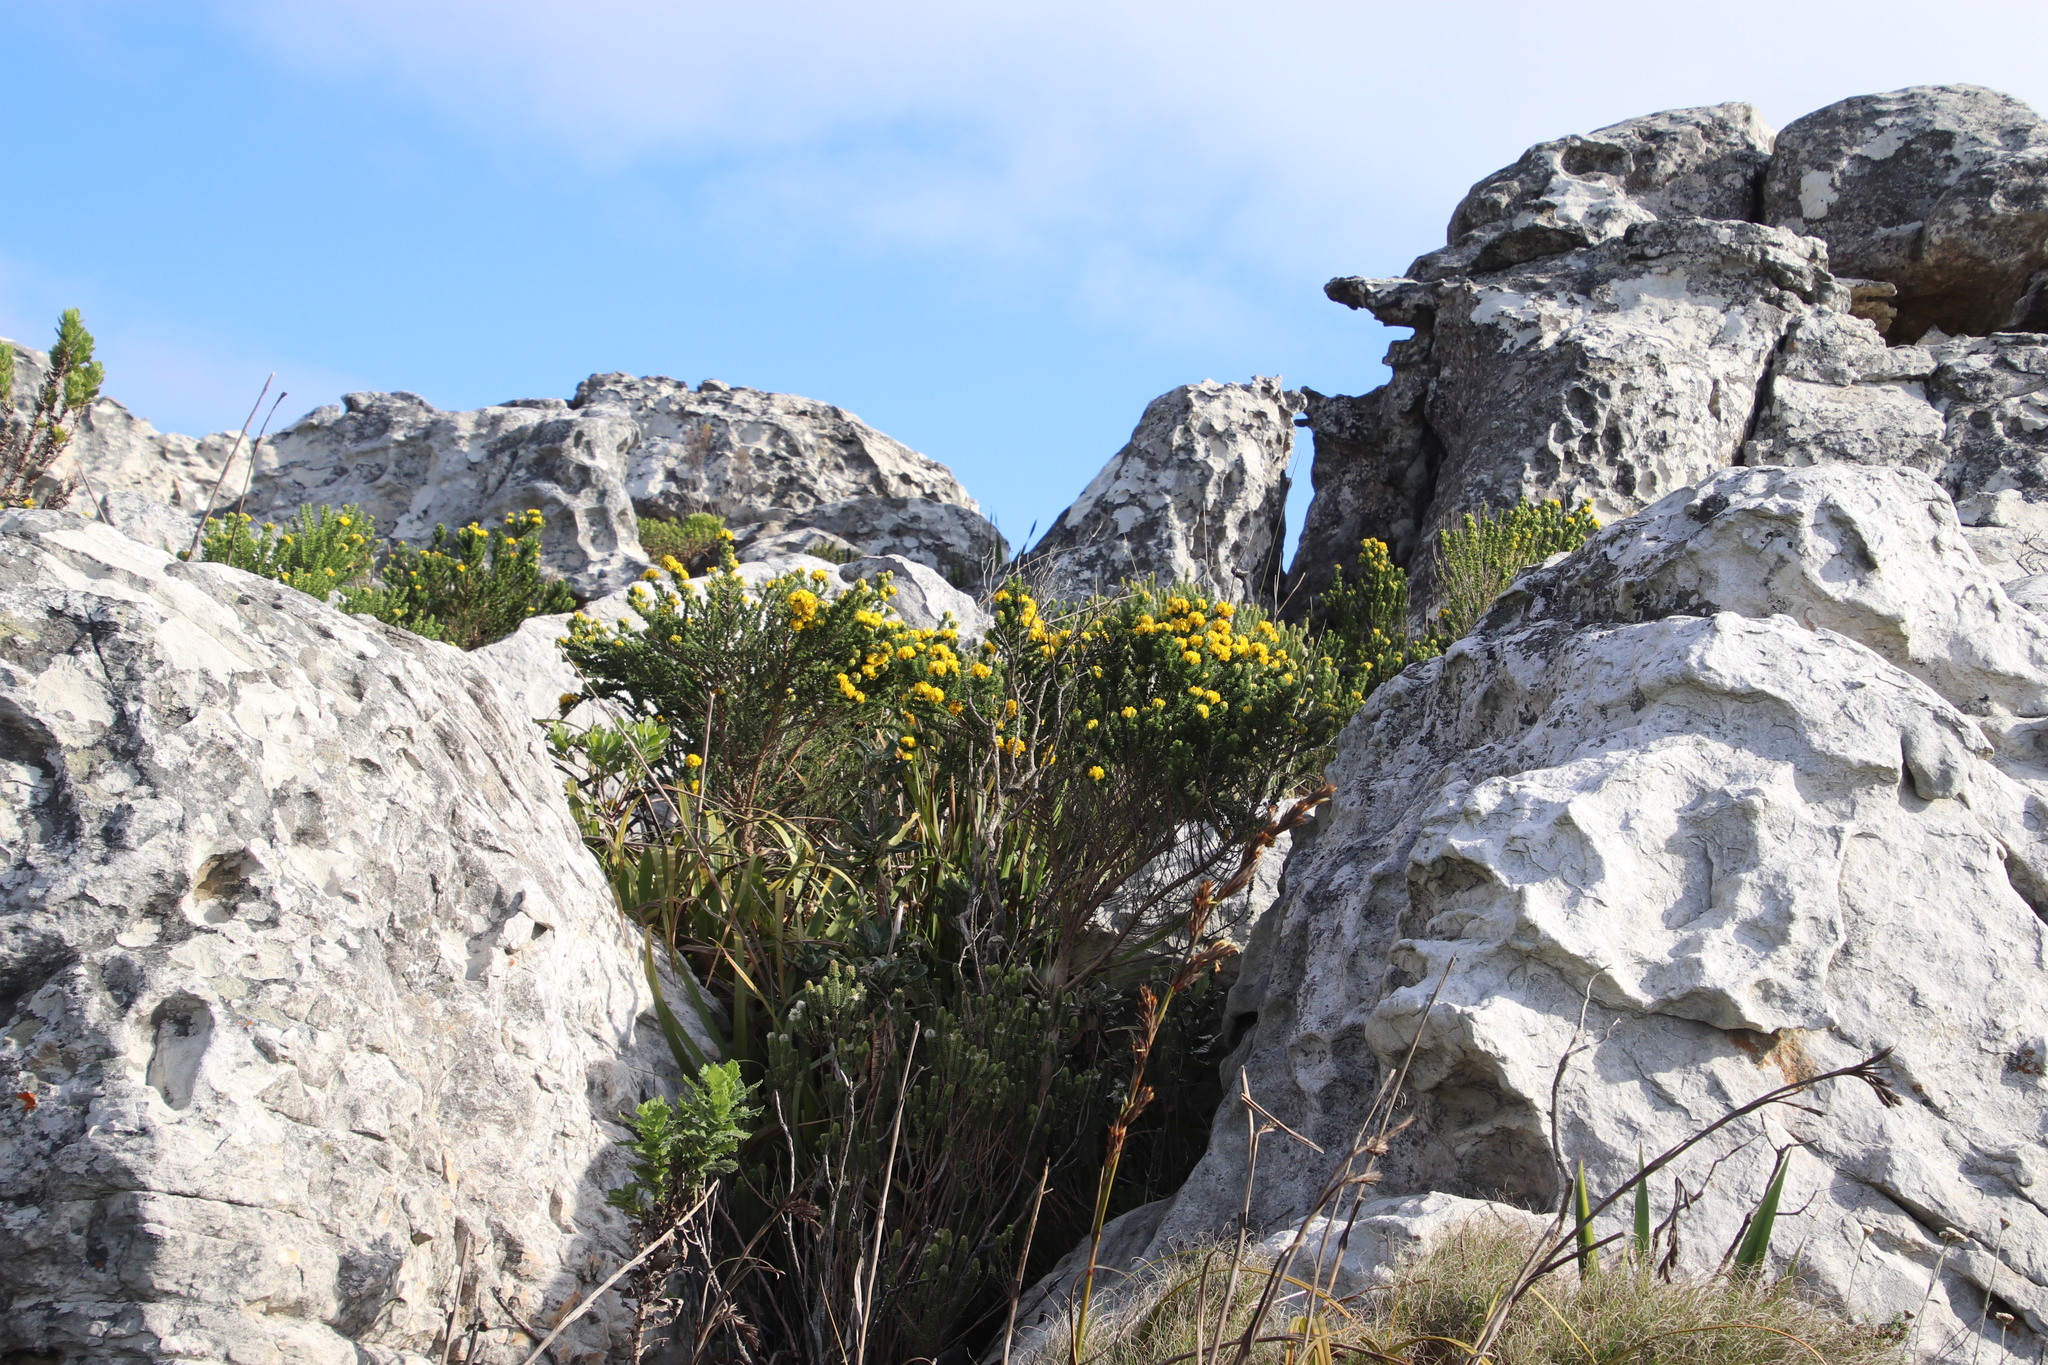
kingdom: Plantae
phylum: Tracheophyta
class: Magnoliopsida
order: Fabales
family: Fabaceae
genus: Cyclopia
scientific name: Cyclopia galioides
